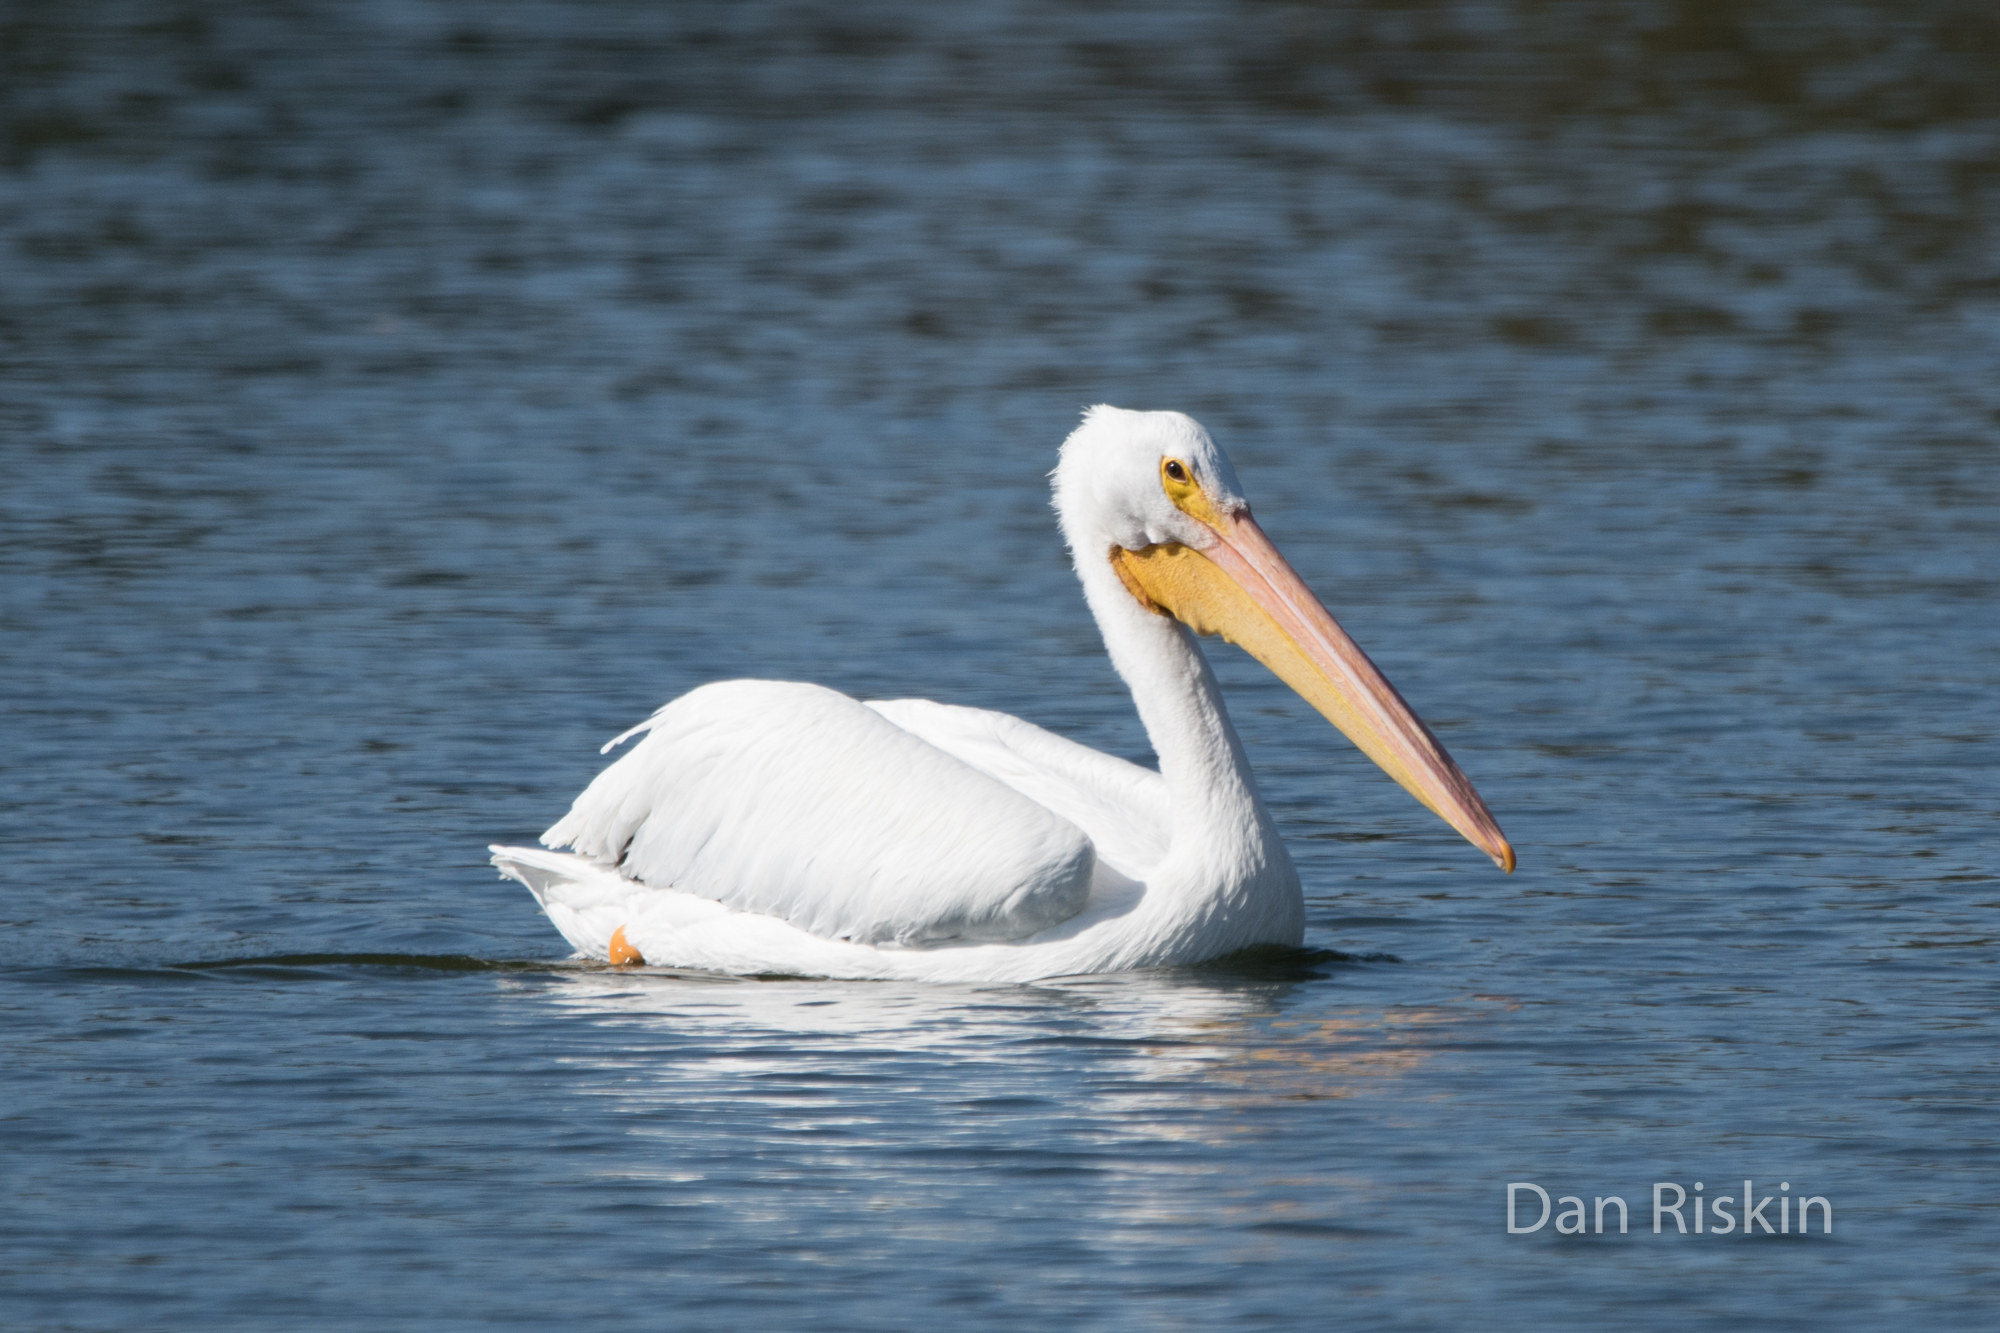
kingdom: Animalia
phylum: Chordata
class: Aves
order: Pelecaniformes
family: Pelecanidae
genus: Pelecanus
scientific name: Pelecanus erythrorhynchos
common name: American white pelican
